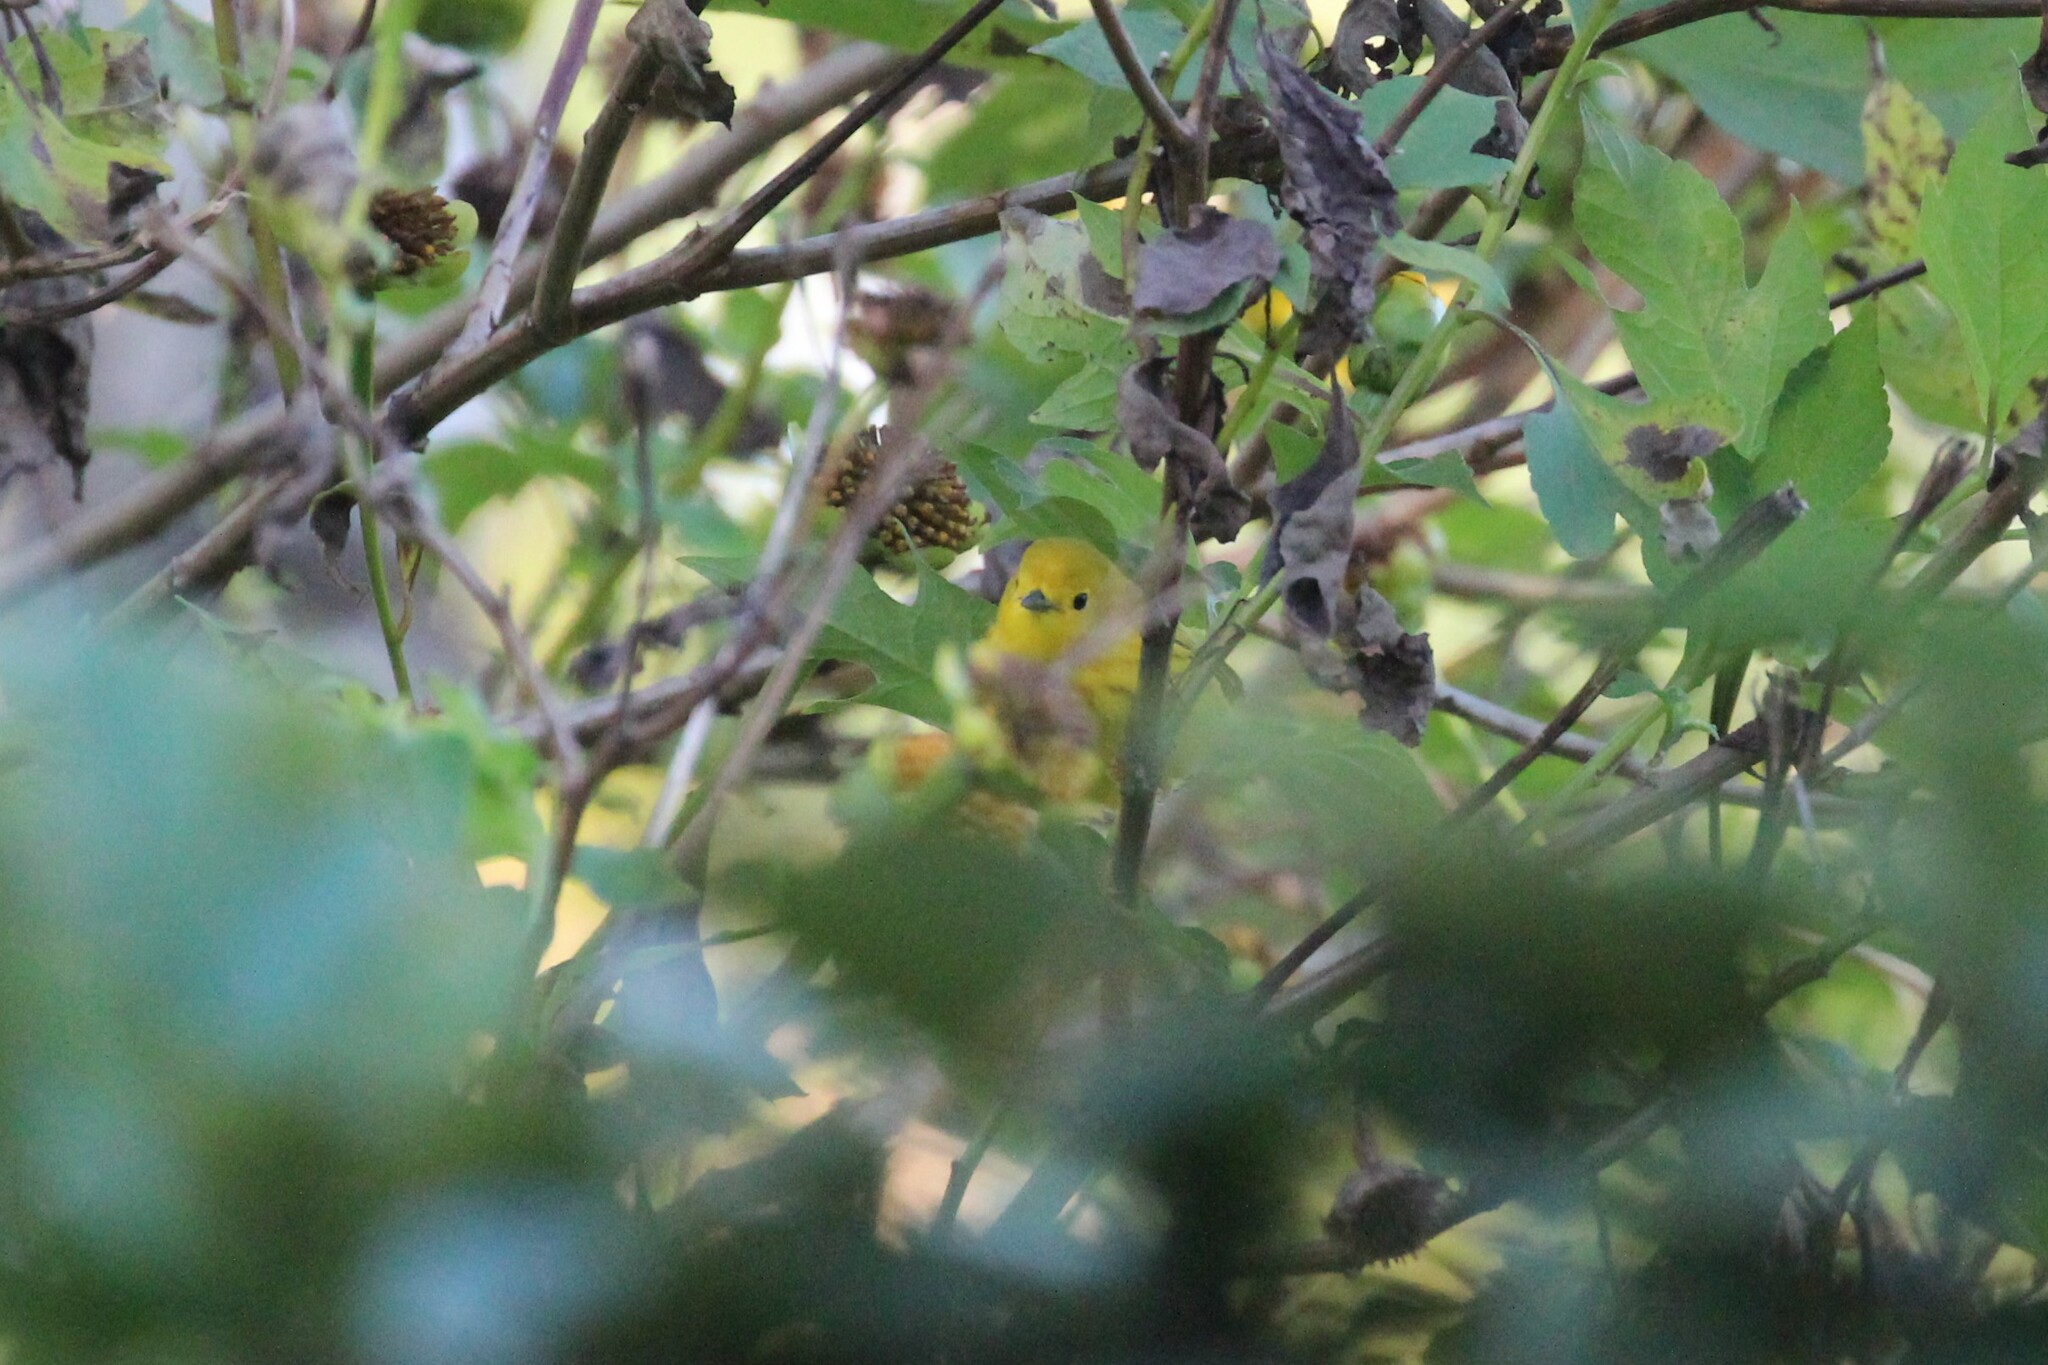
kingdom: Animalia
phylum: Chordata
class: Aves
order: Passeriformes
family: Parulidae
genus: Setophaga
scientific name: Setophaga petechia
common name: Yellow warbler
